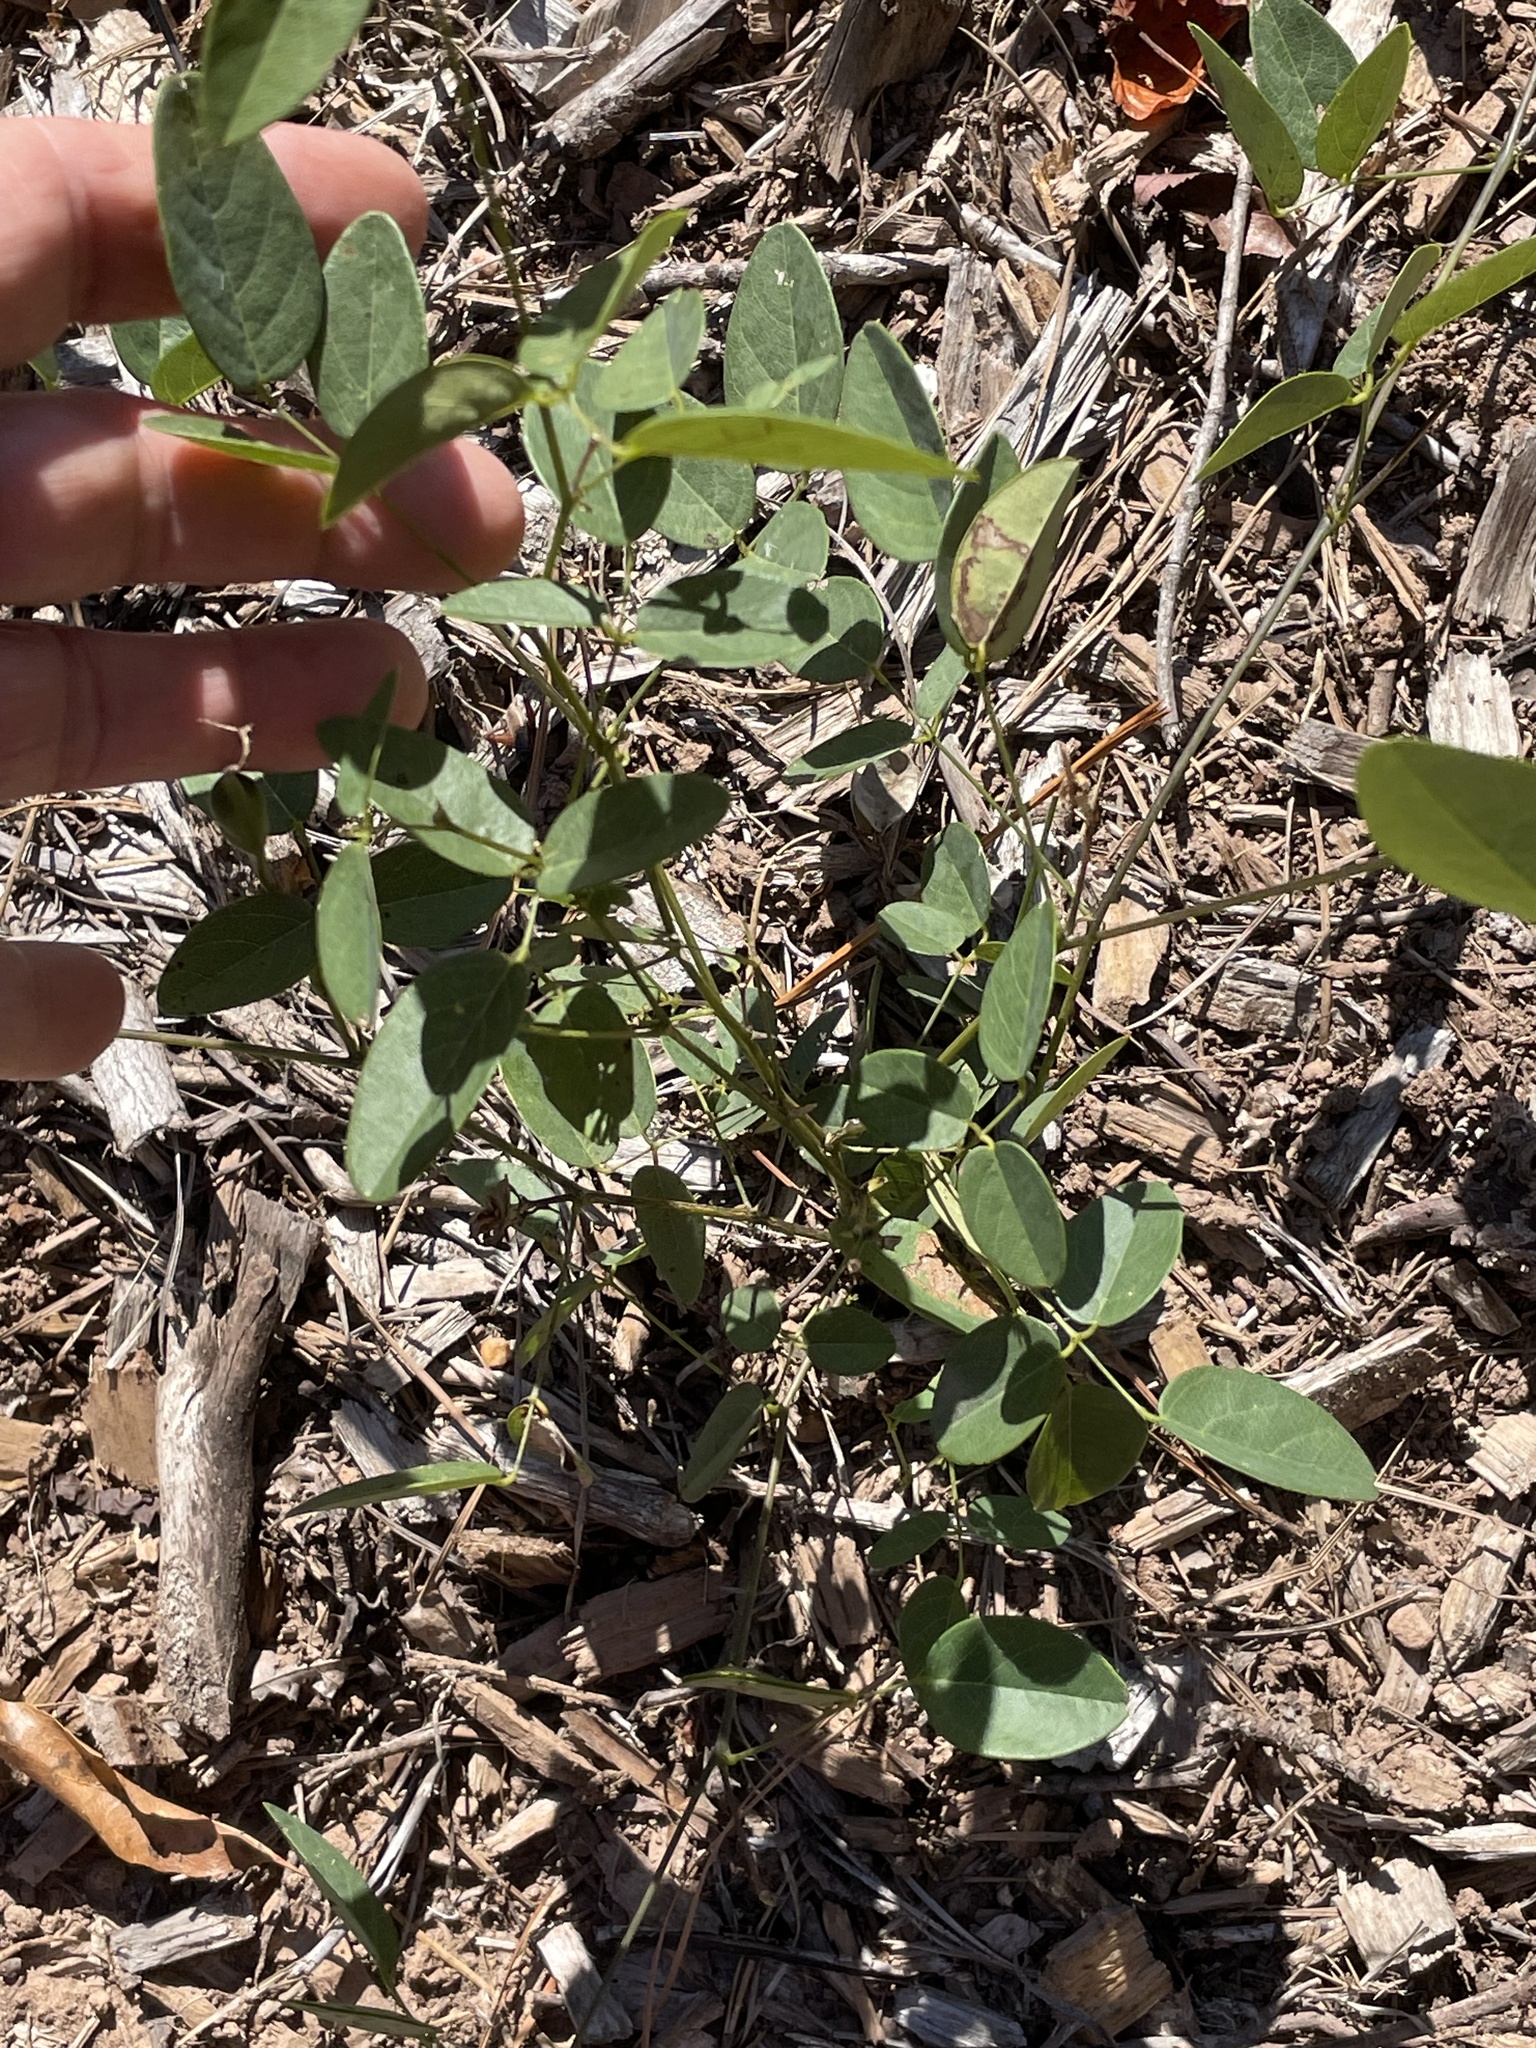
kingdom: Plantae
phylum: Tracheophyta
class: Magnoliopsida
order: Fabales
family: Fabaceae
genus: Clitoria
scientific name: Clitoria mariana
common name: Butterfly-pea
